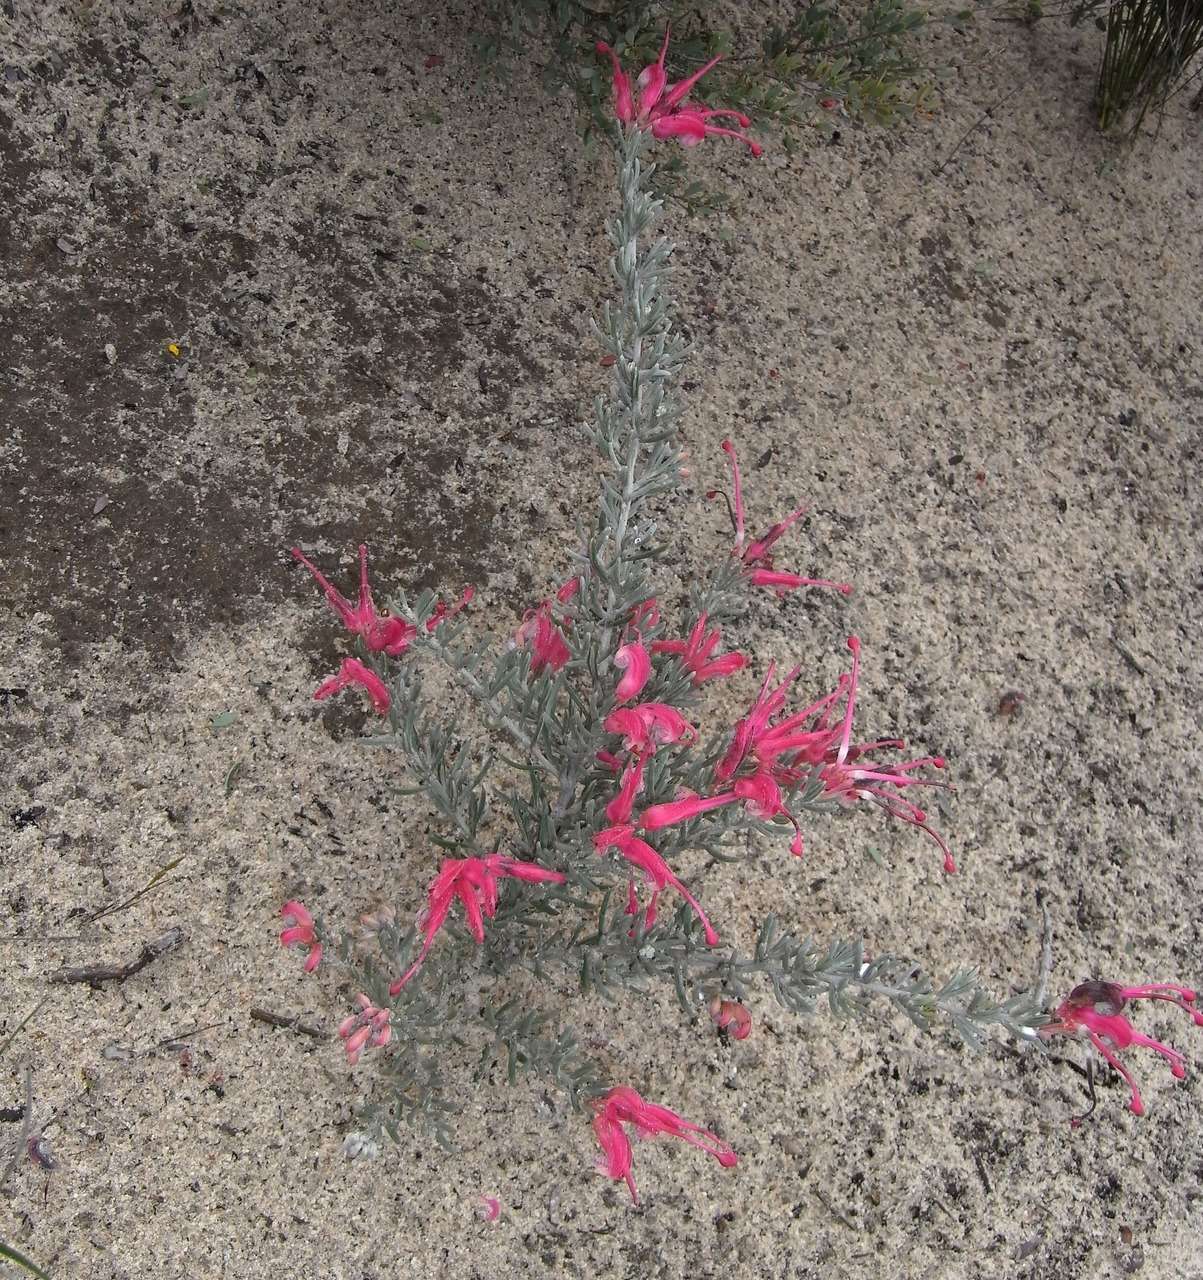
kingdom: Plantae
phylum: Tracheophyta
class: Magnoliopsida
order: Proteales
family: Proteaceae
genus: Grevillea
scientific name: Grevillea lavandulacea
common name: Lavender grevillea
